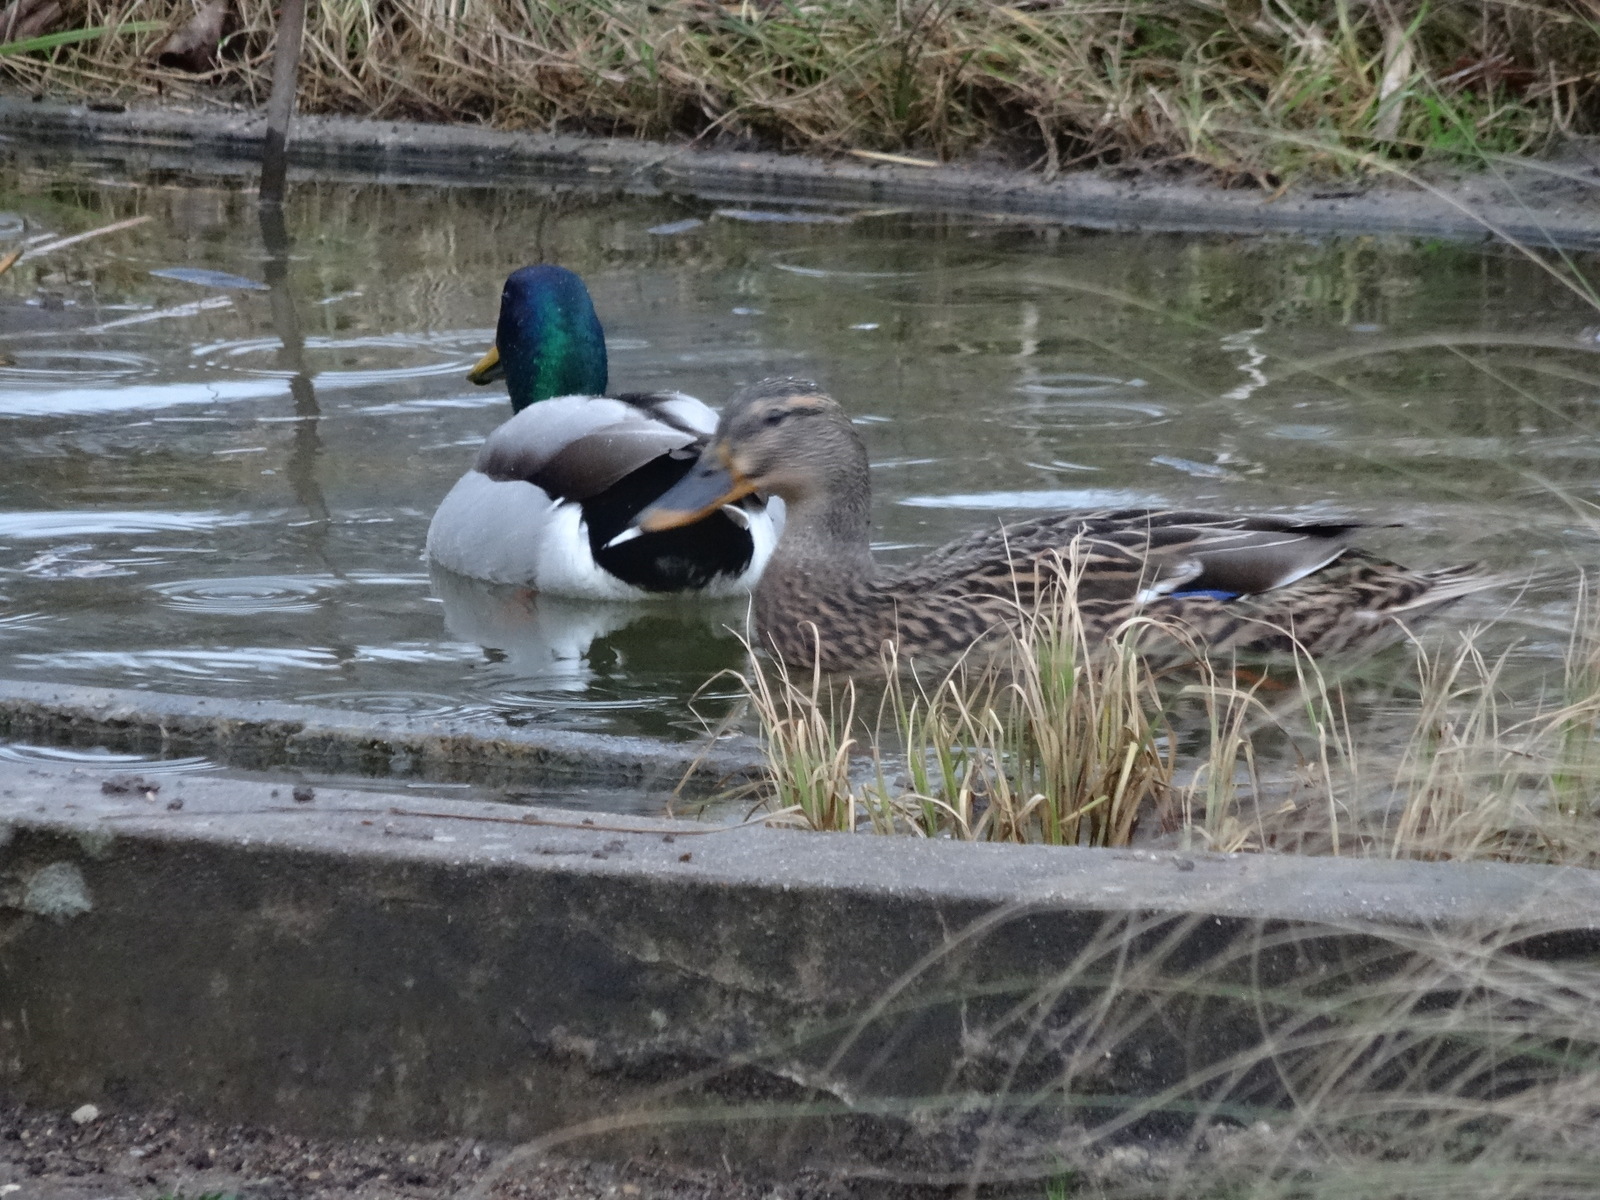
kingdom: Animalia
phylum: Chordata
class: Aves
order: Anseriformes
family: Anatidae
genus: Anas
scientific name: Anas platyrhynchos
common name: Mallard
